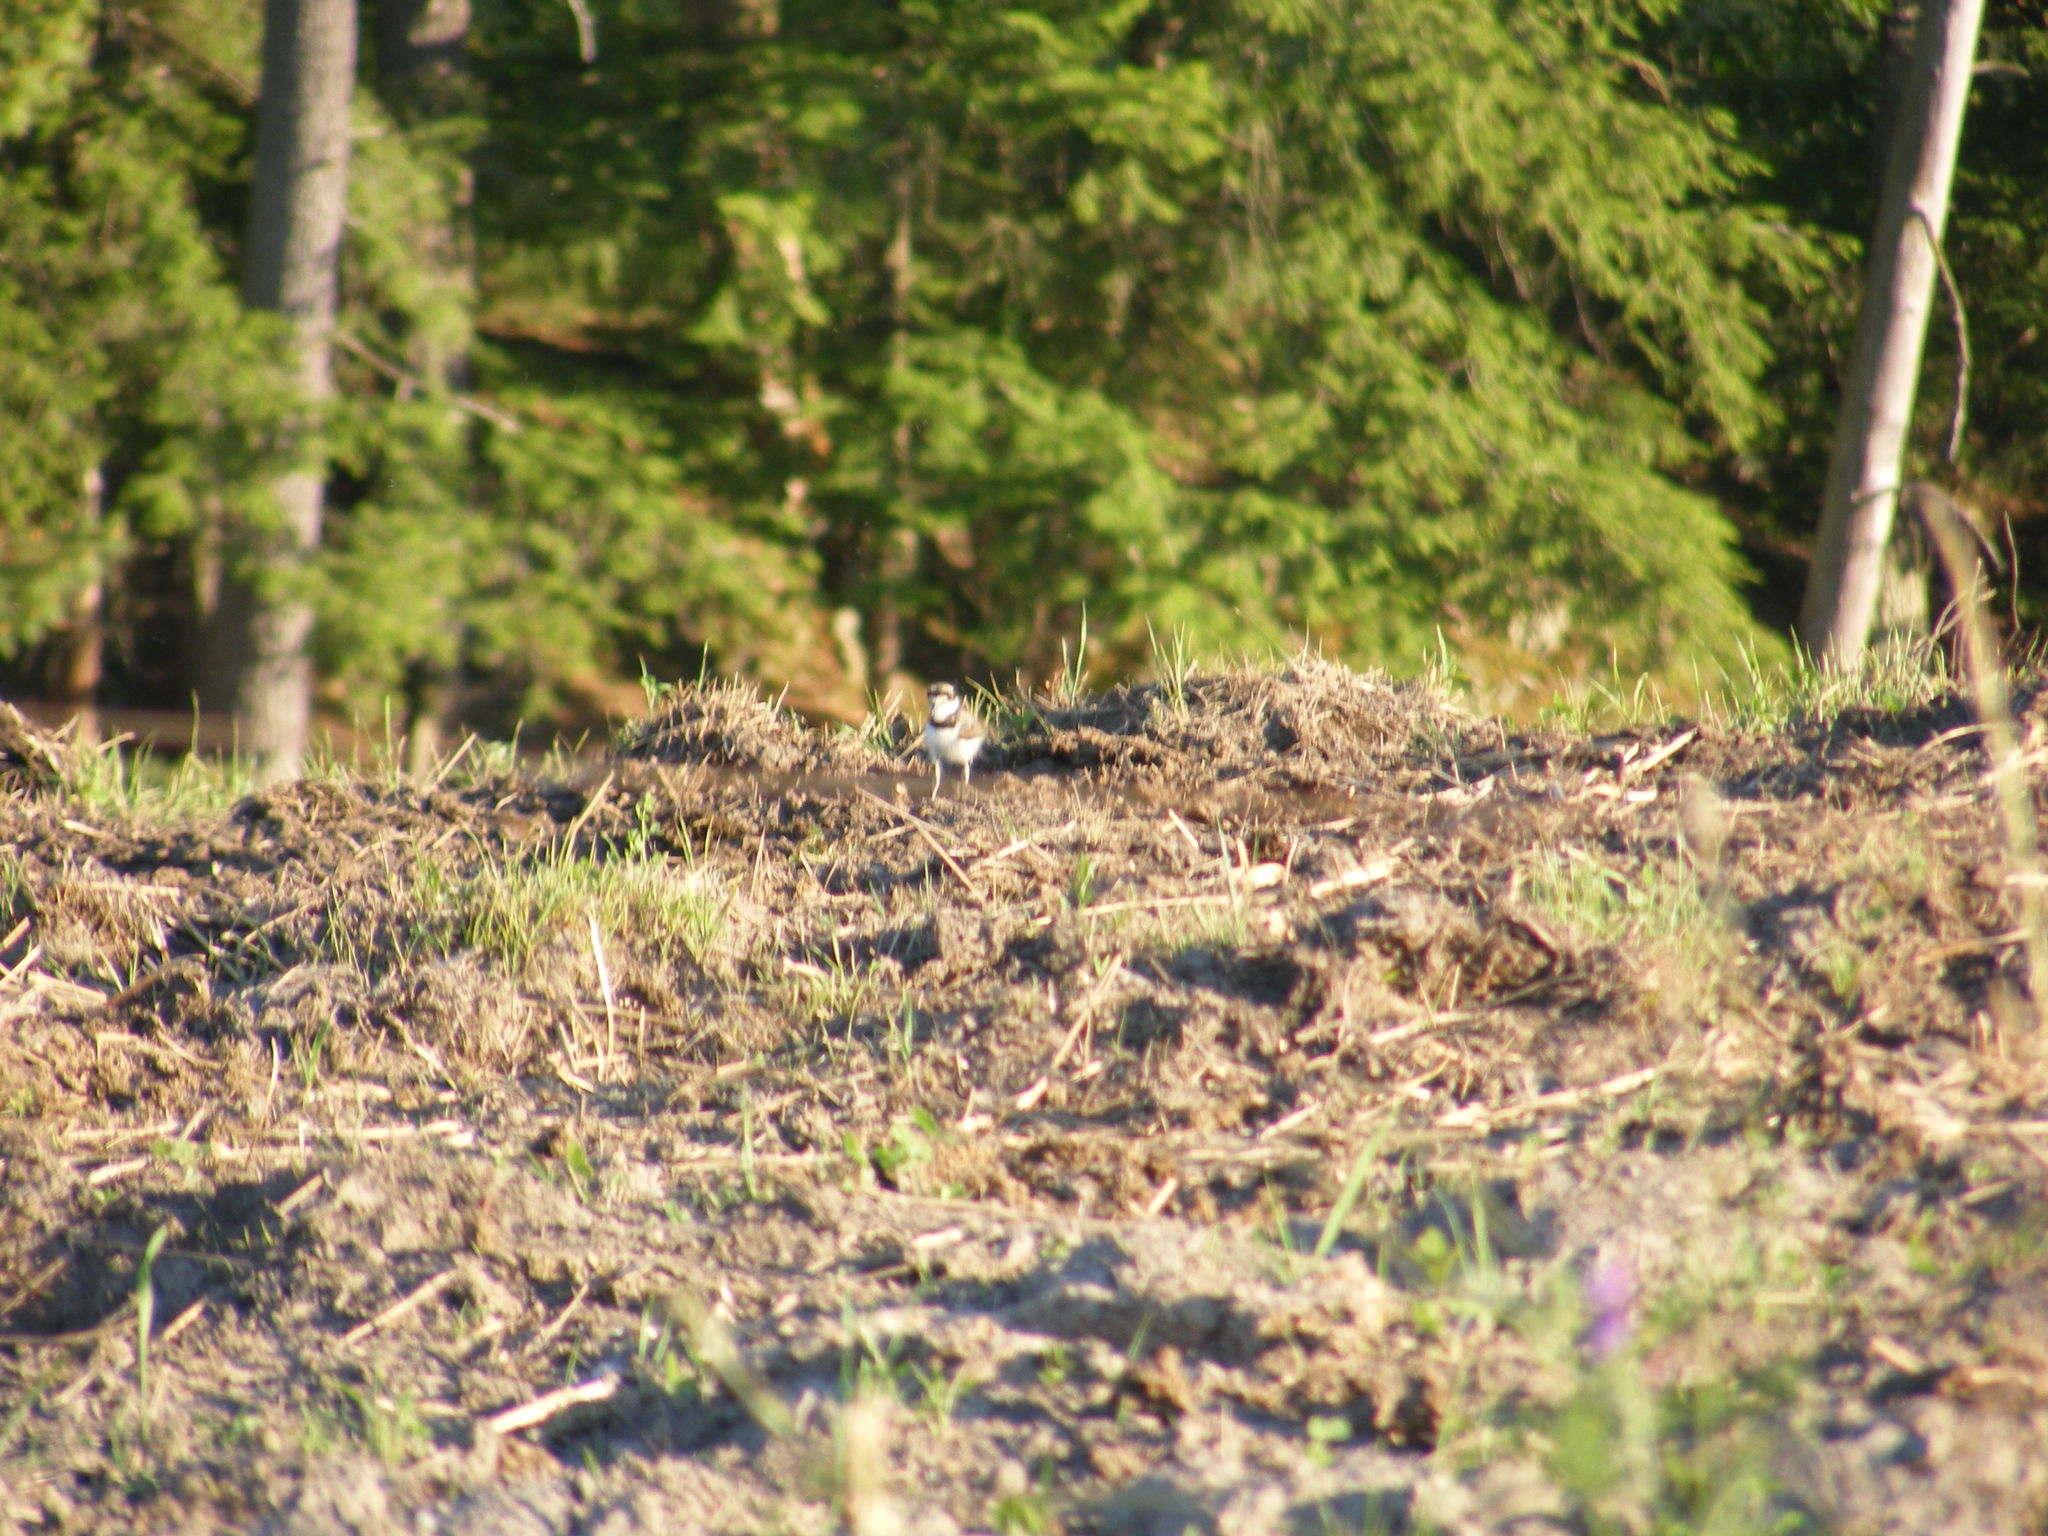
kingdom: Animalia
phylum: Chordata
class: Aves
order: Charadriiformes
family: Charadriidae
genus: Charadrius
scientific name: Charadrius vociferus
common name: Killdeer
